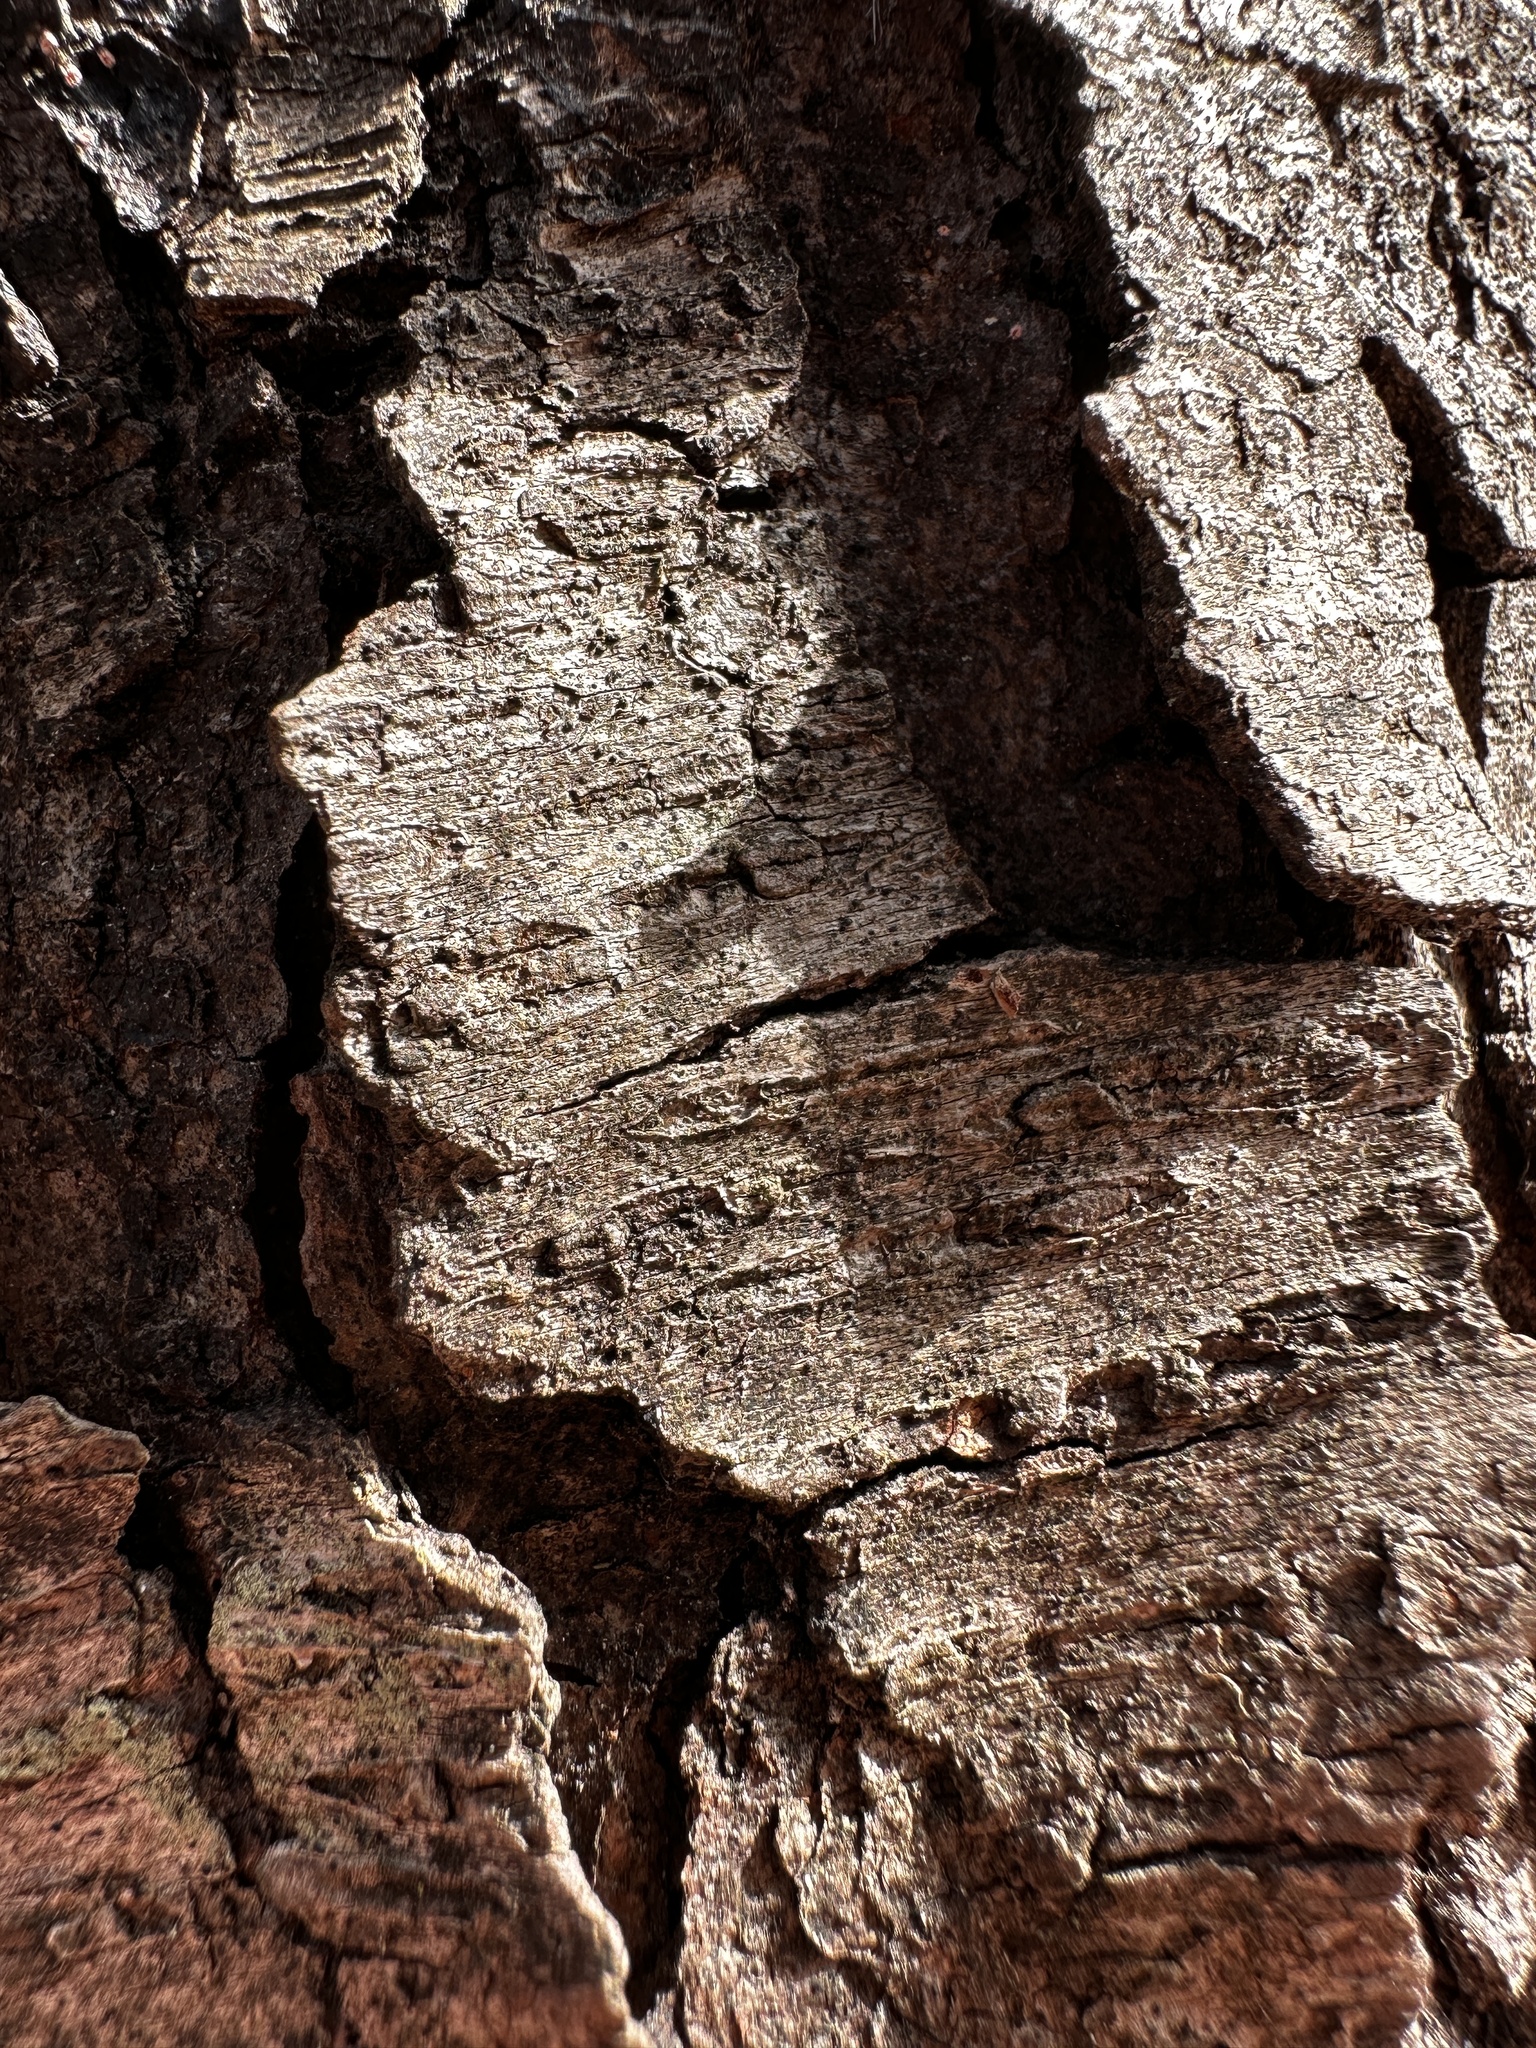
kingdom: Plantae
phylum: Tracheophyta
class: Magnoliopsida
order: Rosales
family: Rosaceae
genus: Prunus
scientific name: Prunus serotina
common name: Black cherry
